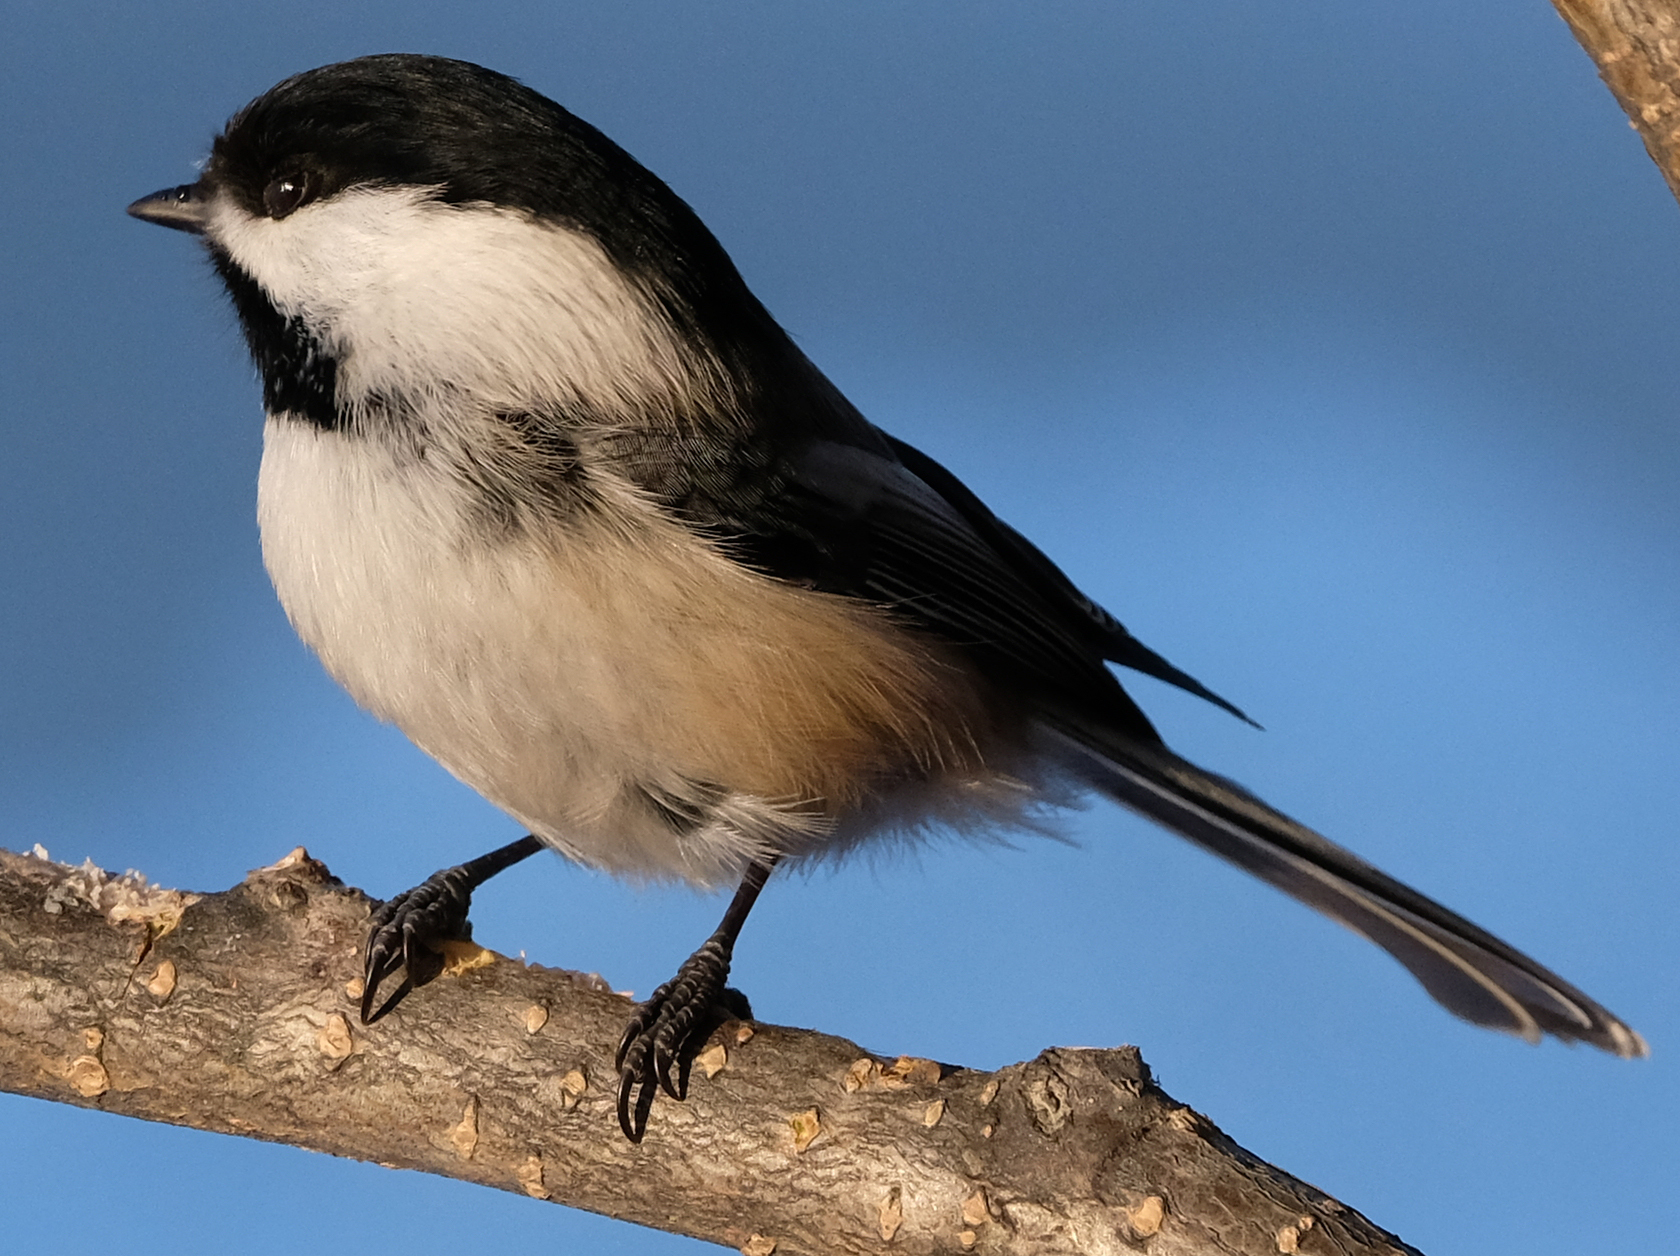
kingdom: Animalia
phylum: Chordata
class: Aves
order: Passeriformes
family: Paridae
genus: Poecile
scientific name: Poecile atricapillus
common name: Black-capped chickadee
